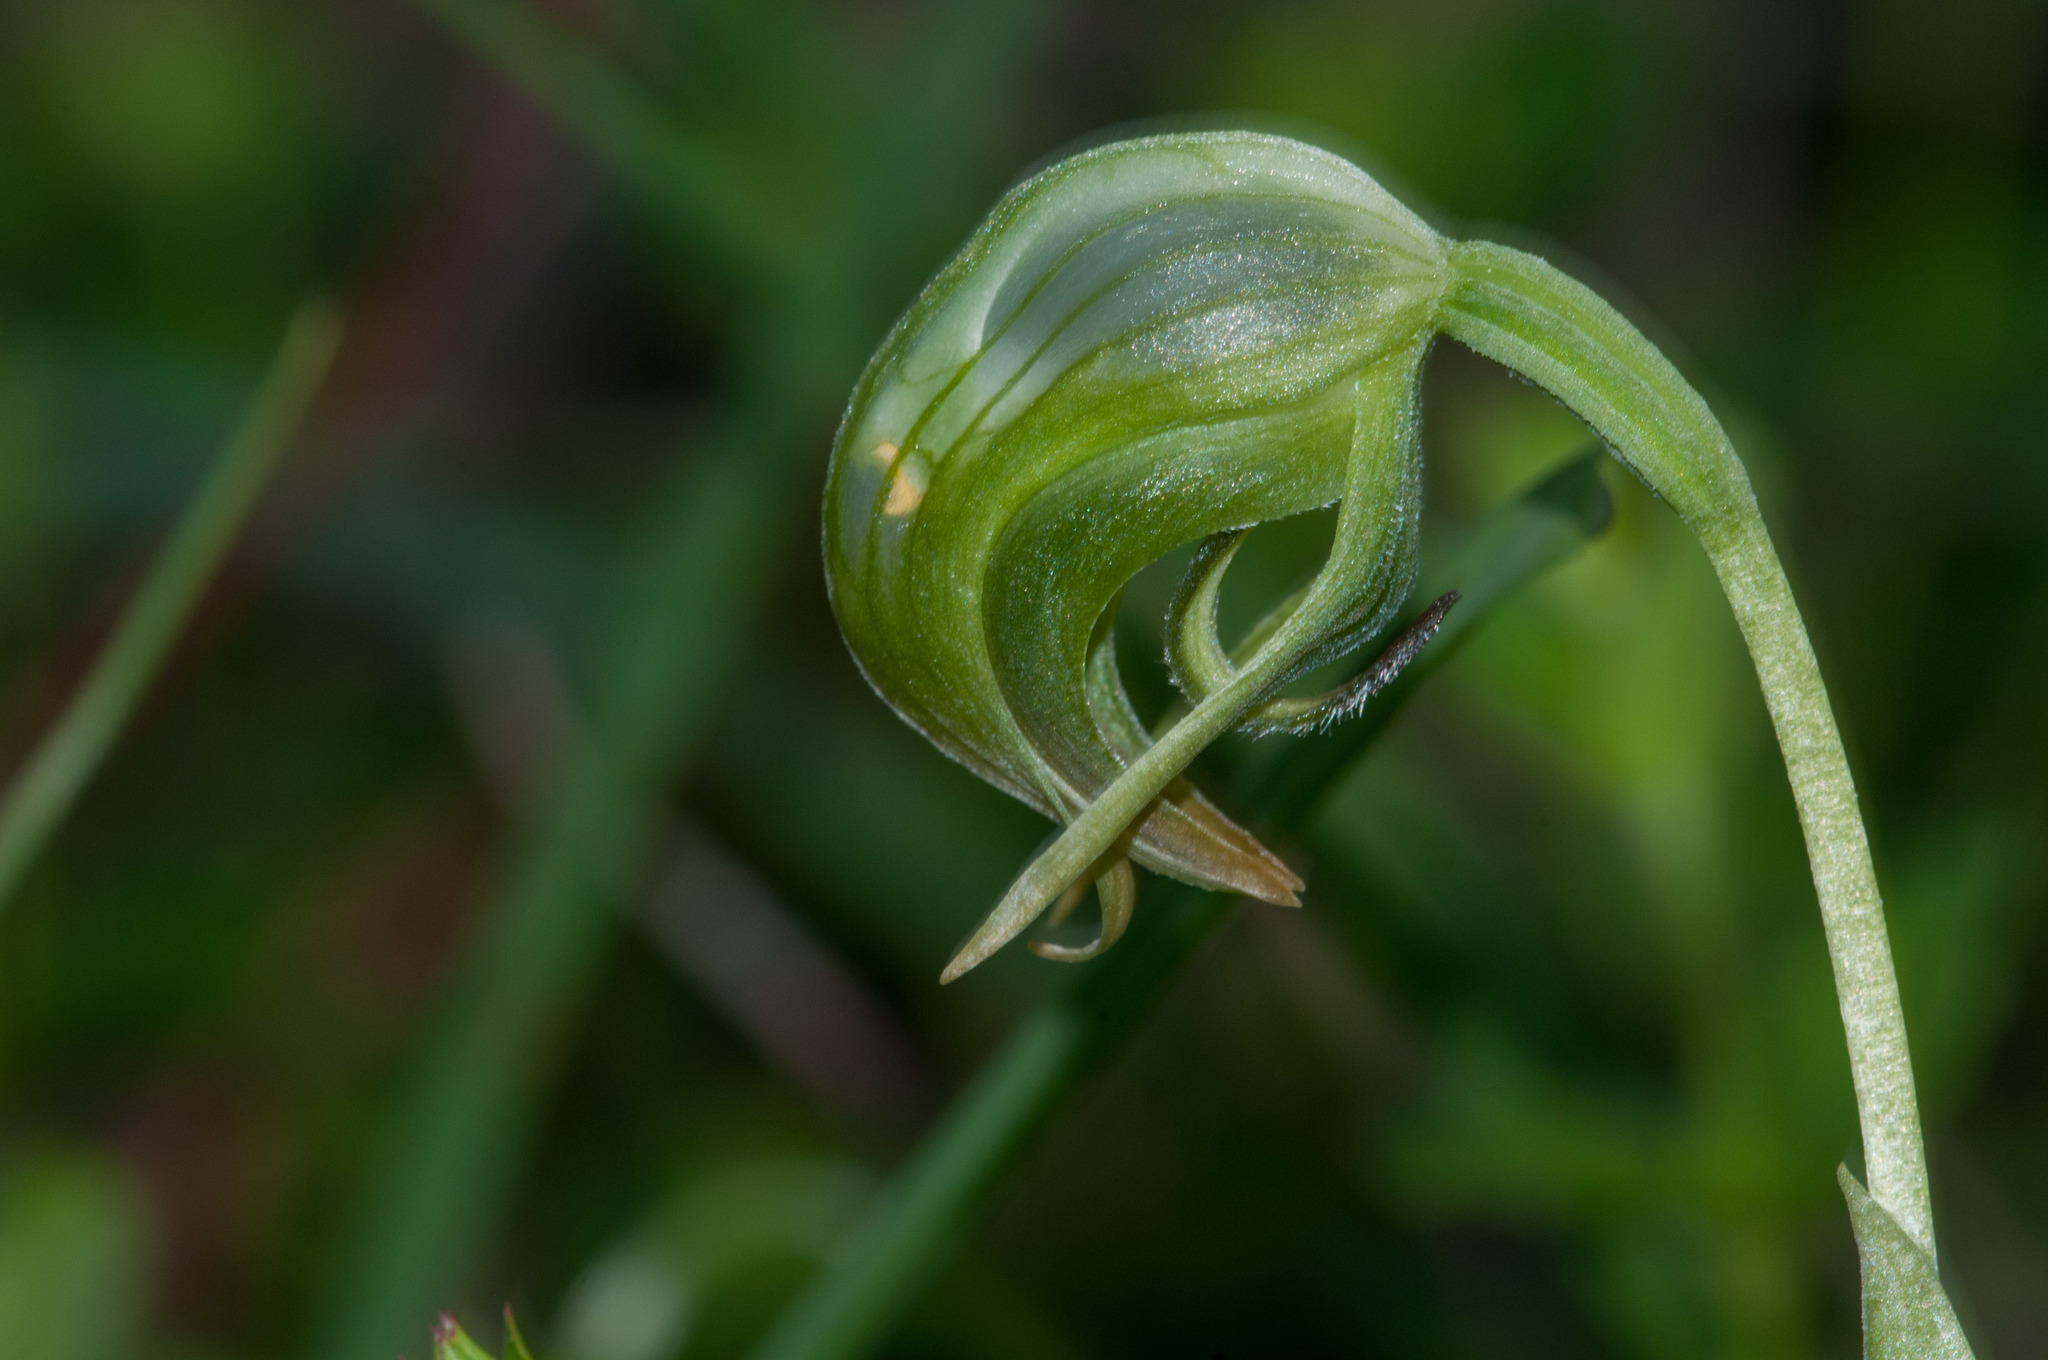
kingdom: Plantae
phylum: Tracheophyta
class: Liliopsida
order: Asparagales
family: Orchidaceae
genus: Pterostylis
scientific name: Pterostylis nutans
